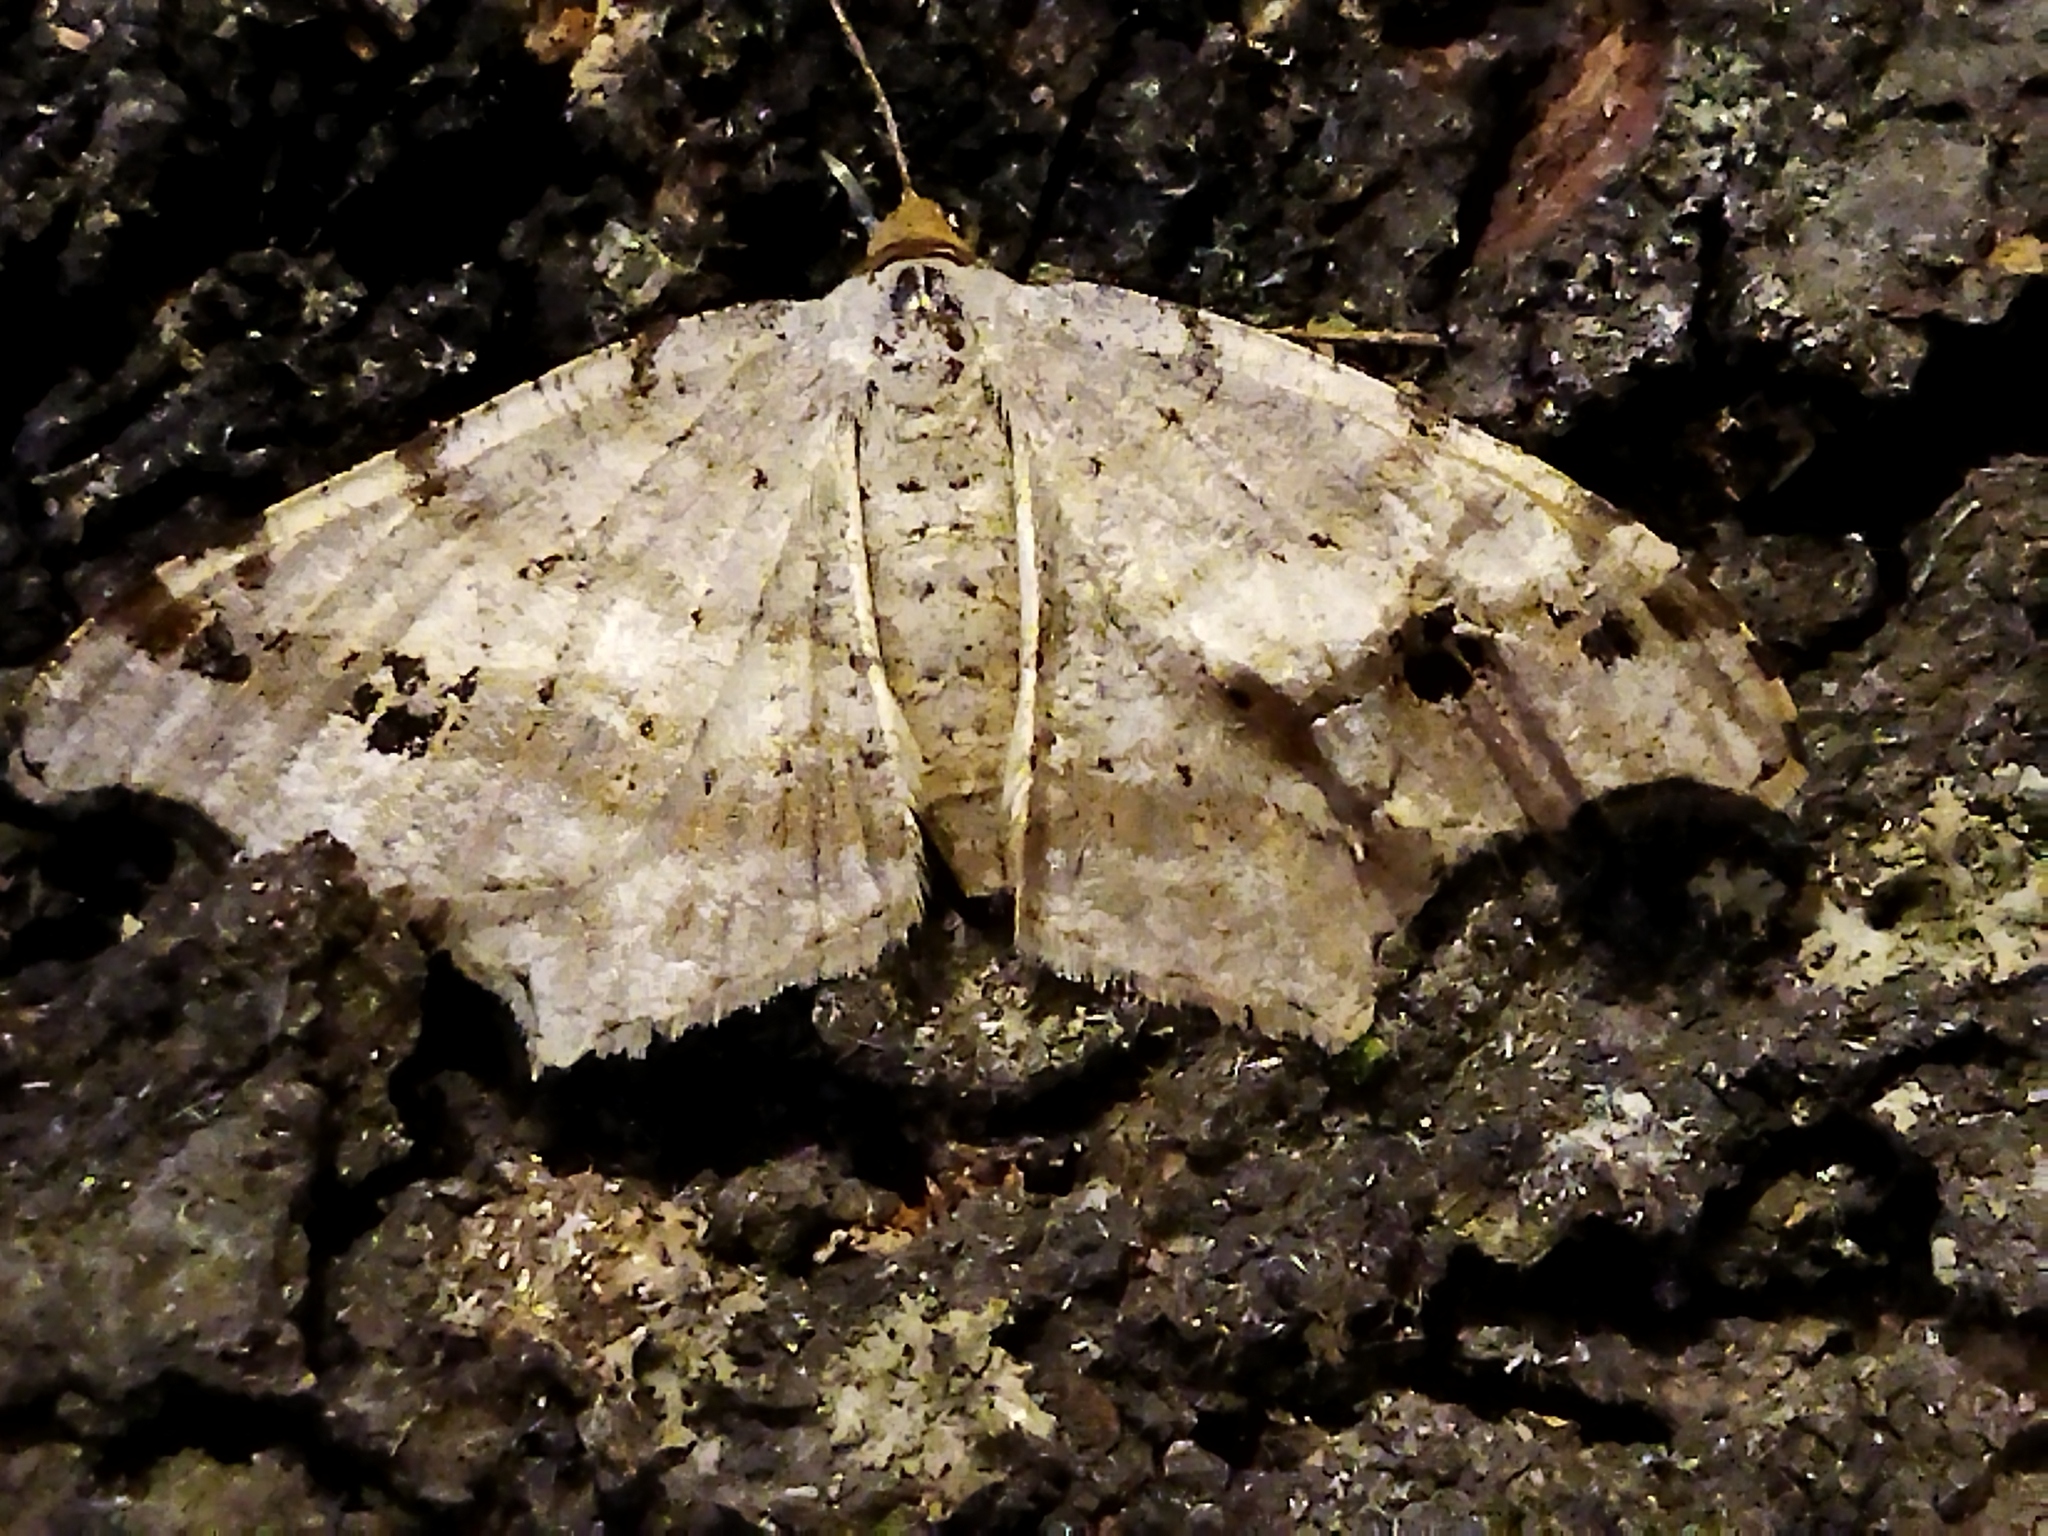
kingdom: Animalia
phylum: Arthropoda
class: Insecta
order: Lepidoptera
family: Geometridae
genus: Macaria
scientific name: Macaria alternata
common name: Sharp-angled peacock
